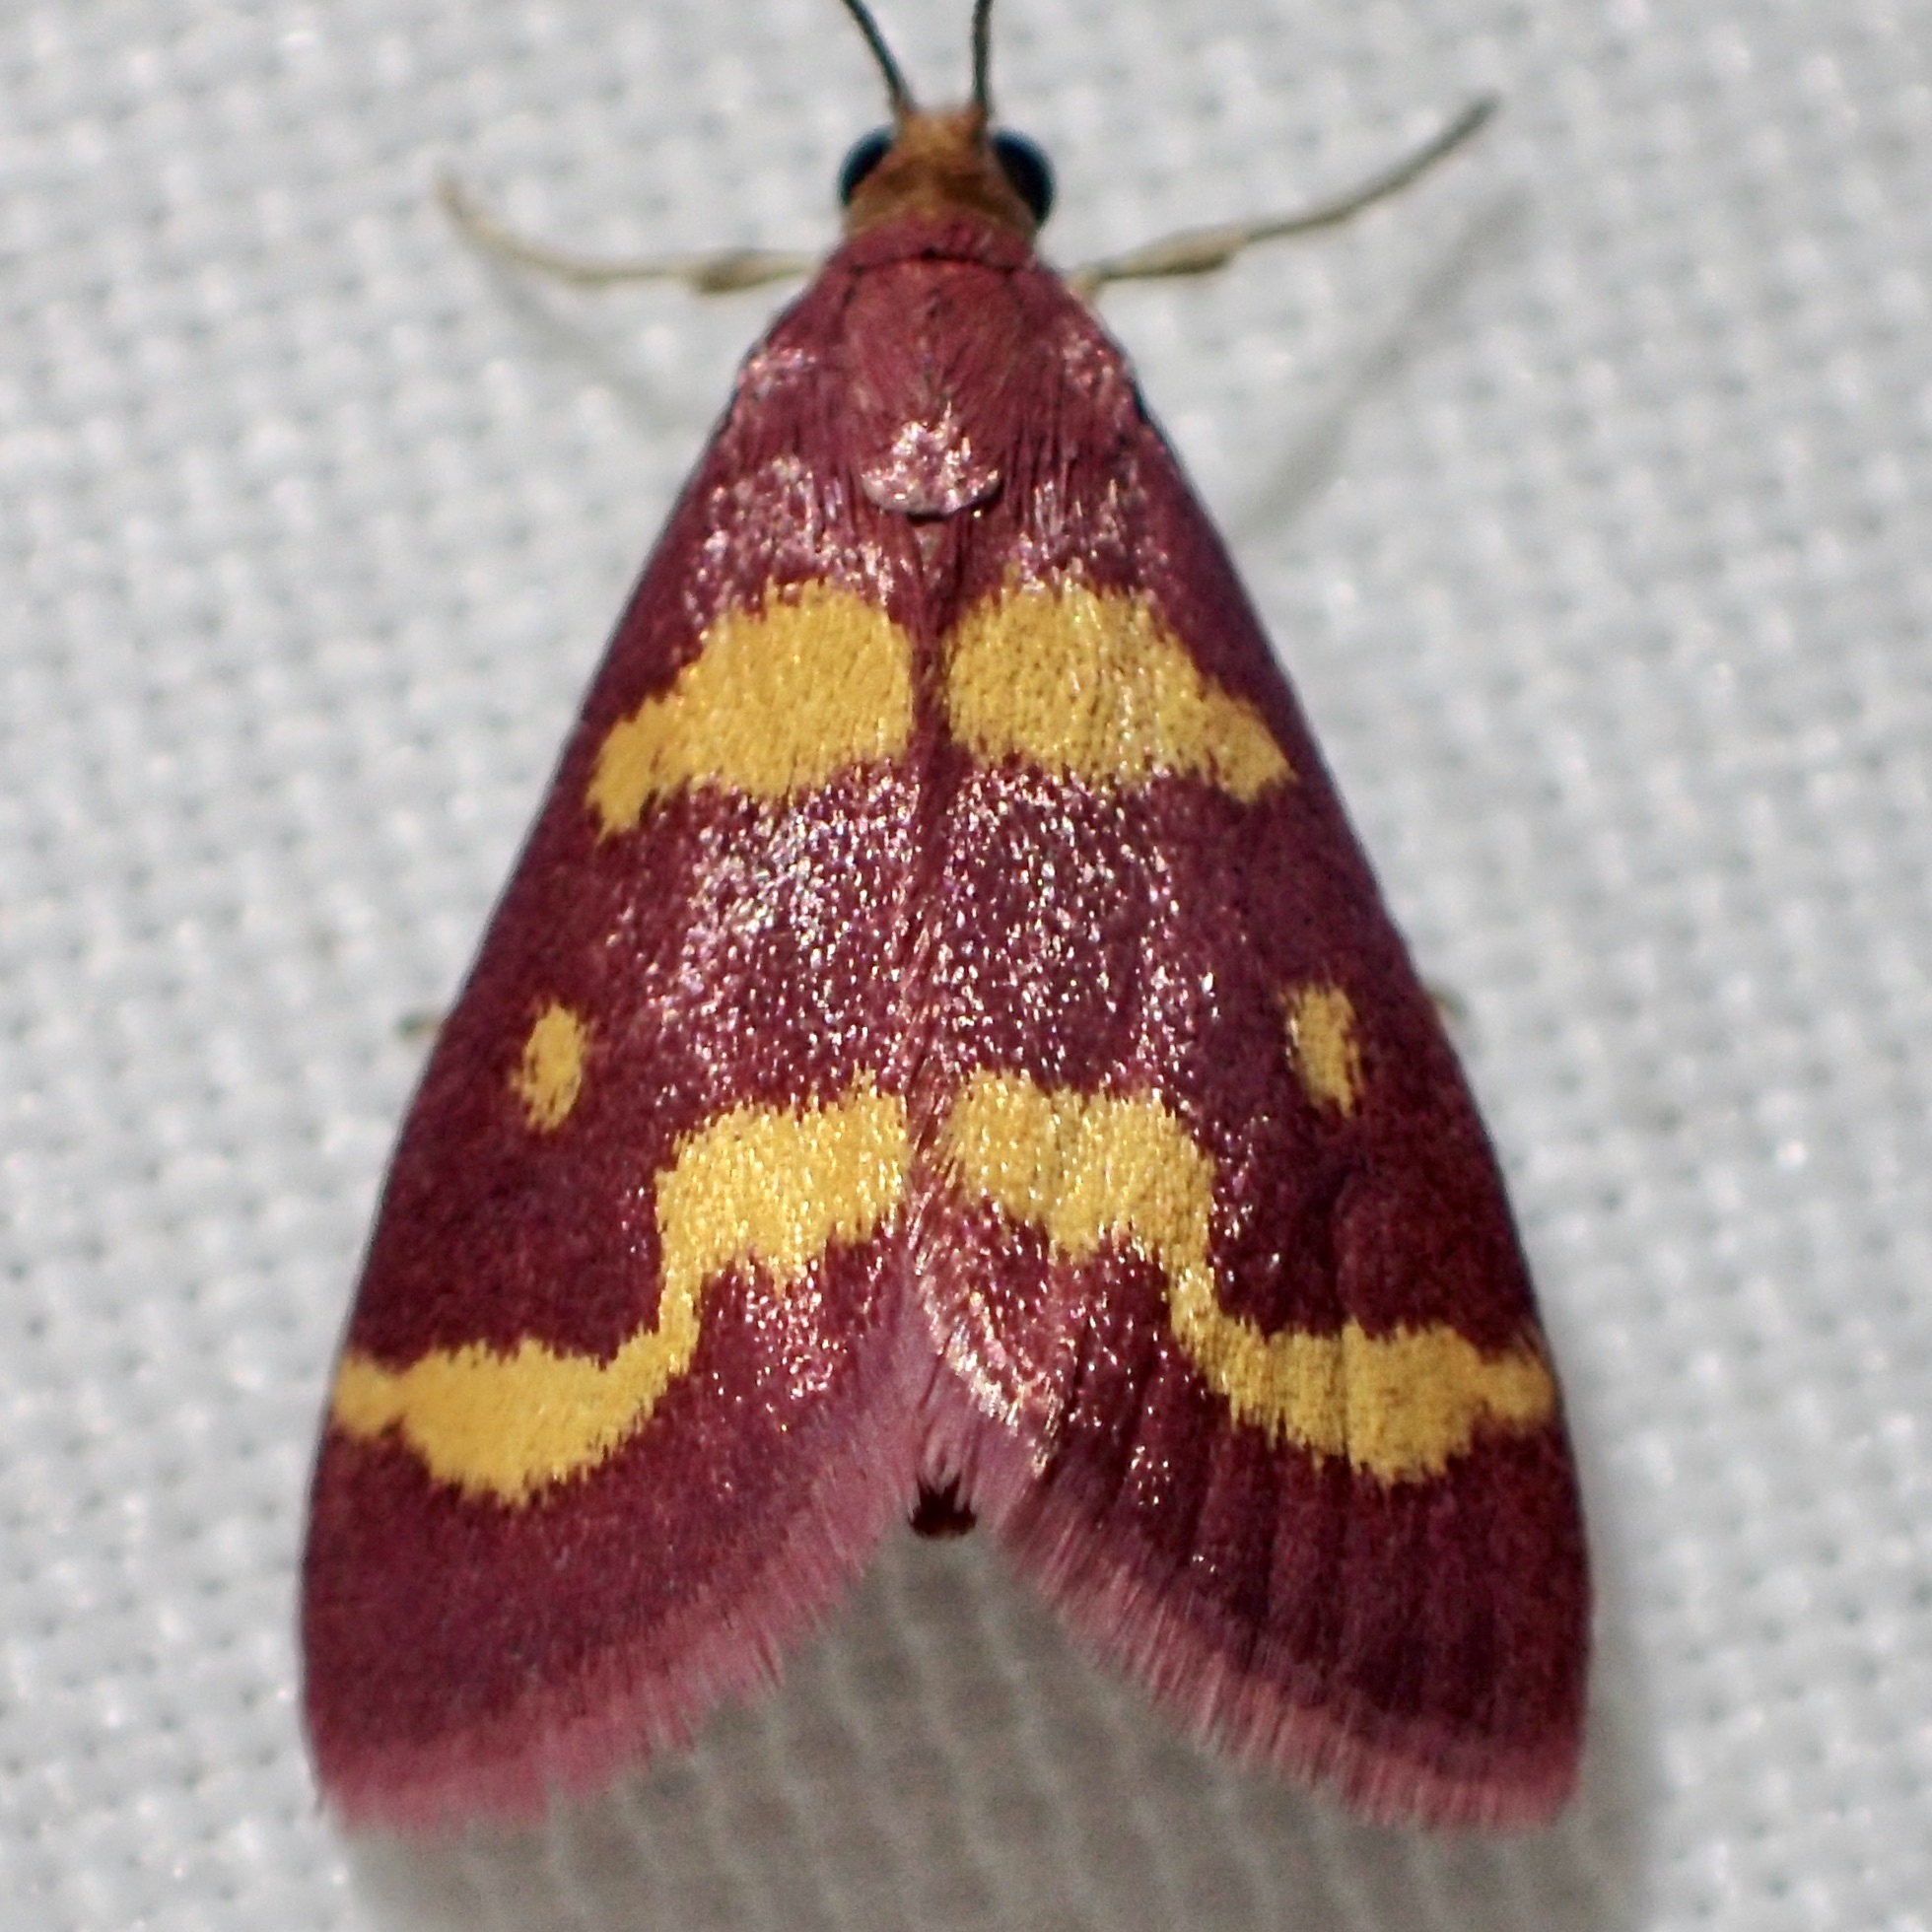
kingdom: Animalia
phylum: Arthropoda
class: Insecta
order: Lepidoptera
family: Crambidae
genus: Pyrausta
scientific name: Pyrausta tyralis
